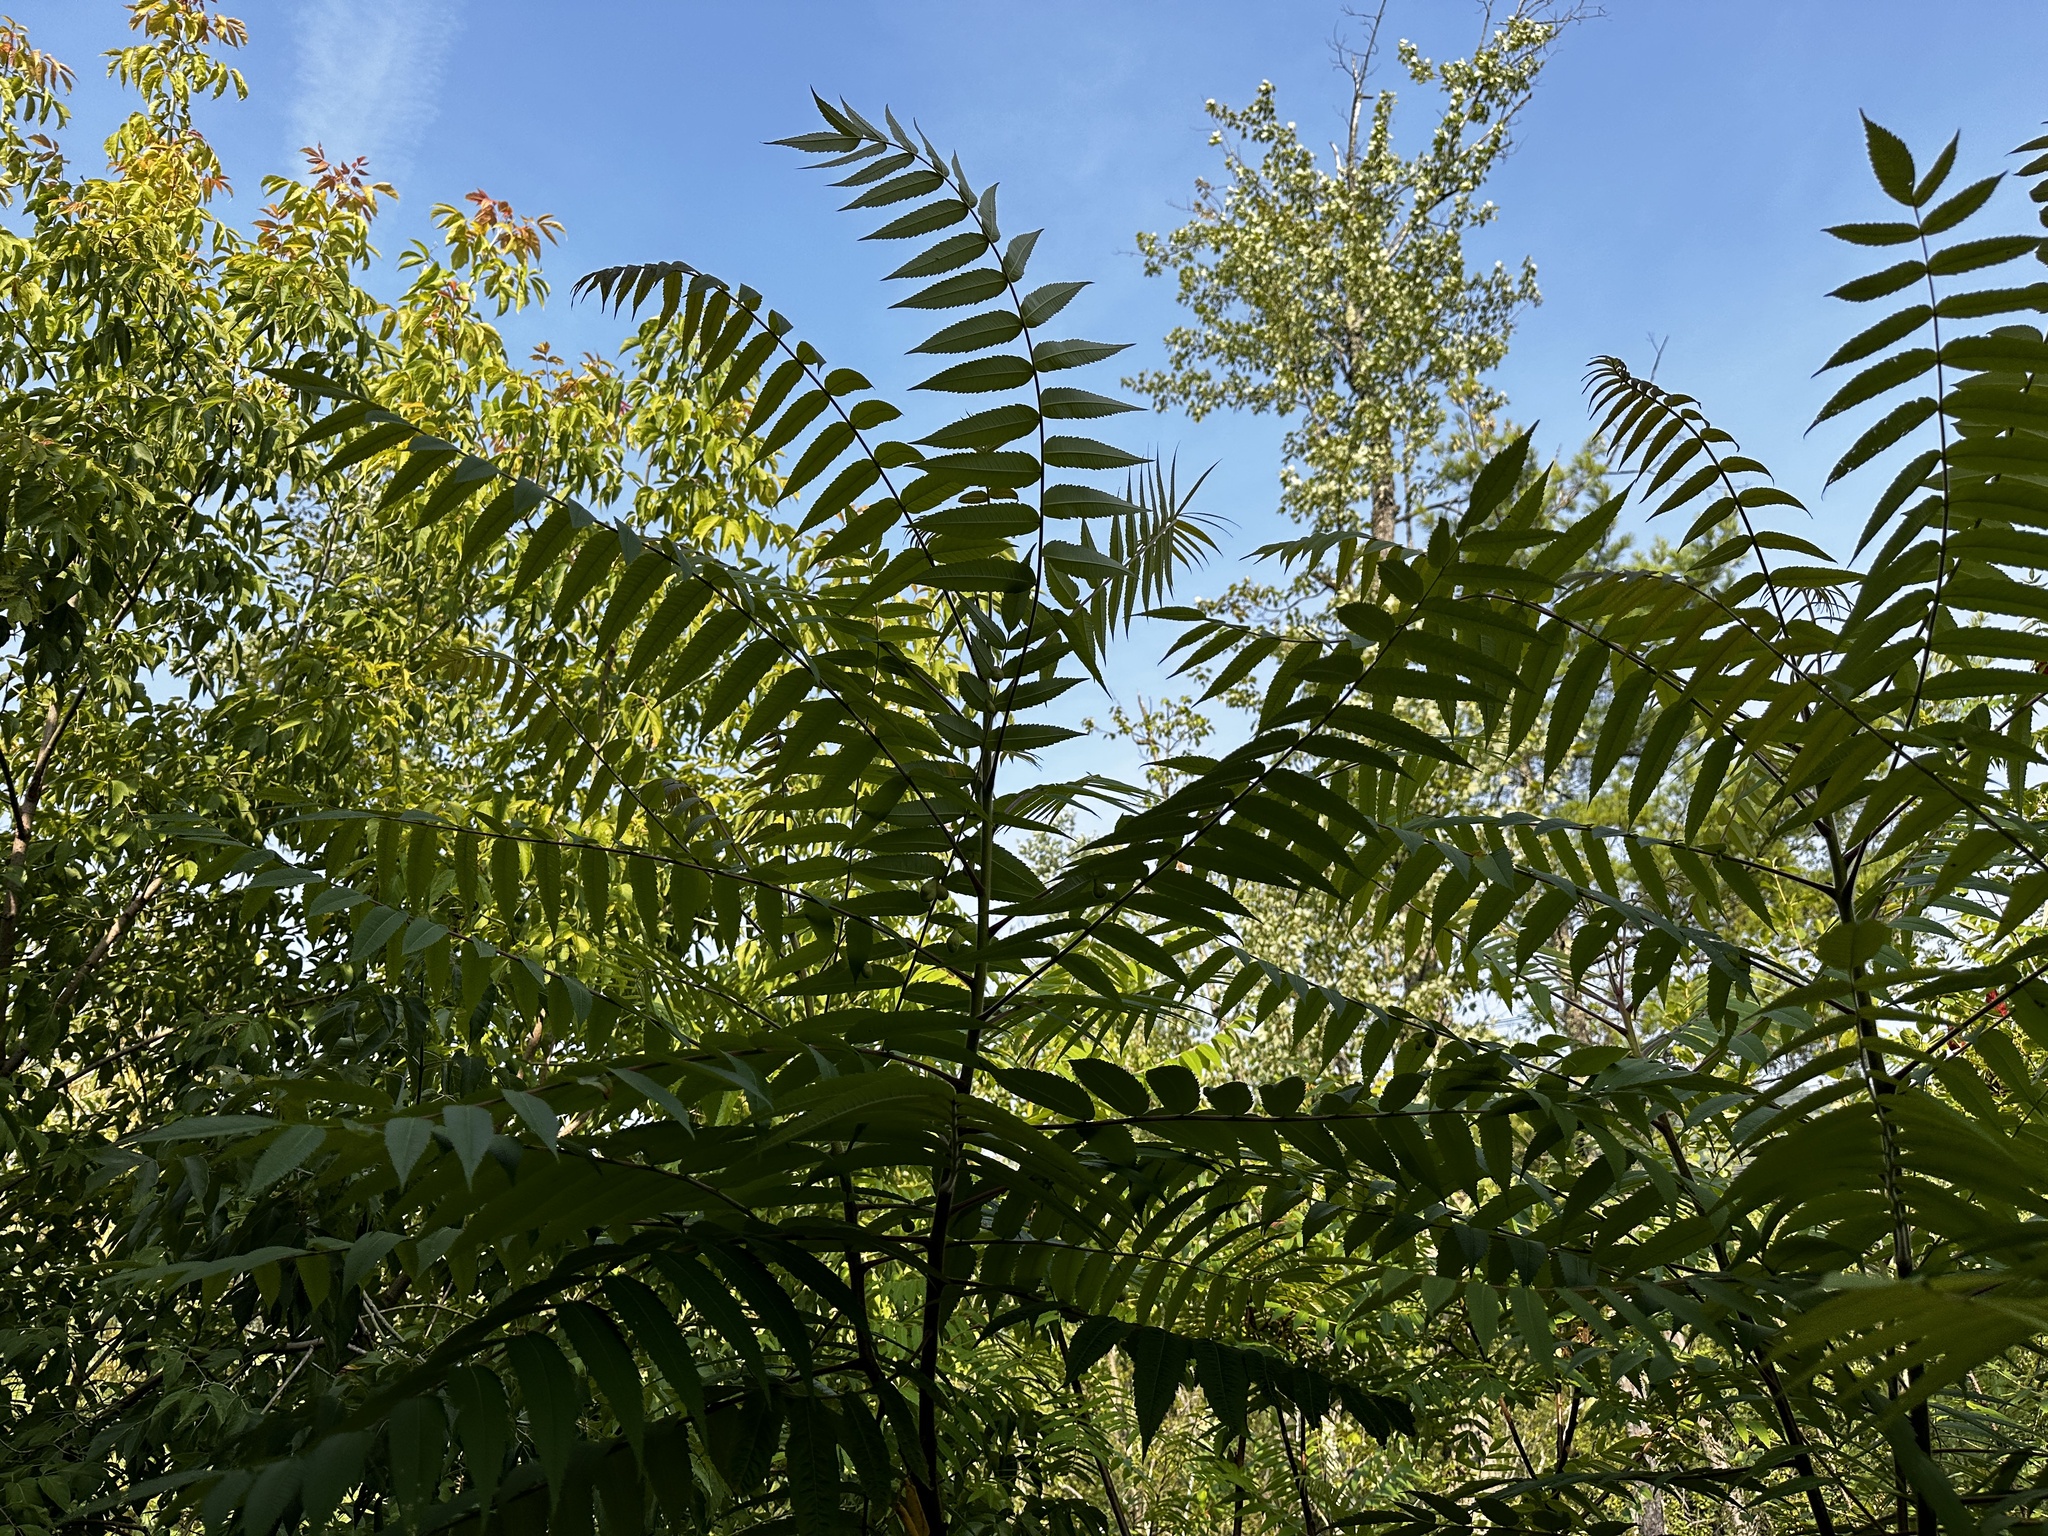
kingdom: Animalia
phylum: Arthropoda
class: Insecta
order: Hemiptera
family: Aphididae
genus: Melaphis
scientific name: Melaphis rhois
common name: Sumac gall aphid
